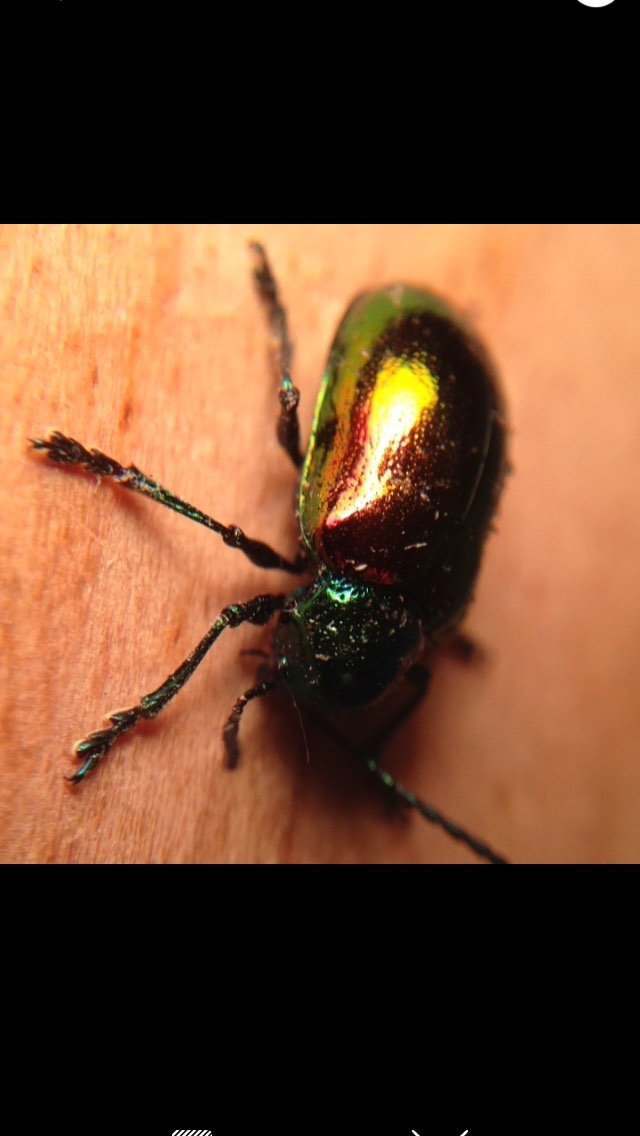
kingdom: Animalia
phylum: Arthropoda
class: Insecta
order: Coleoptera
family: Chrysomelidae
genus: Chrysochus
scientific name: Chrysochus auratus
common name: Dogbane leaf beetle
